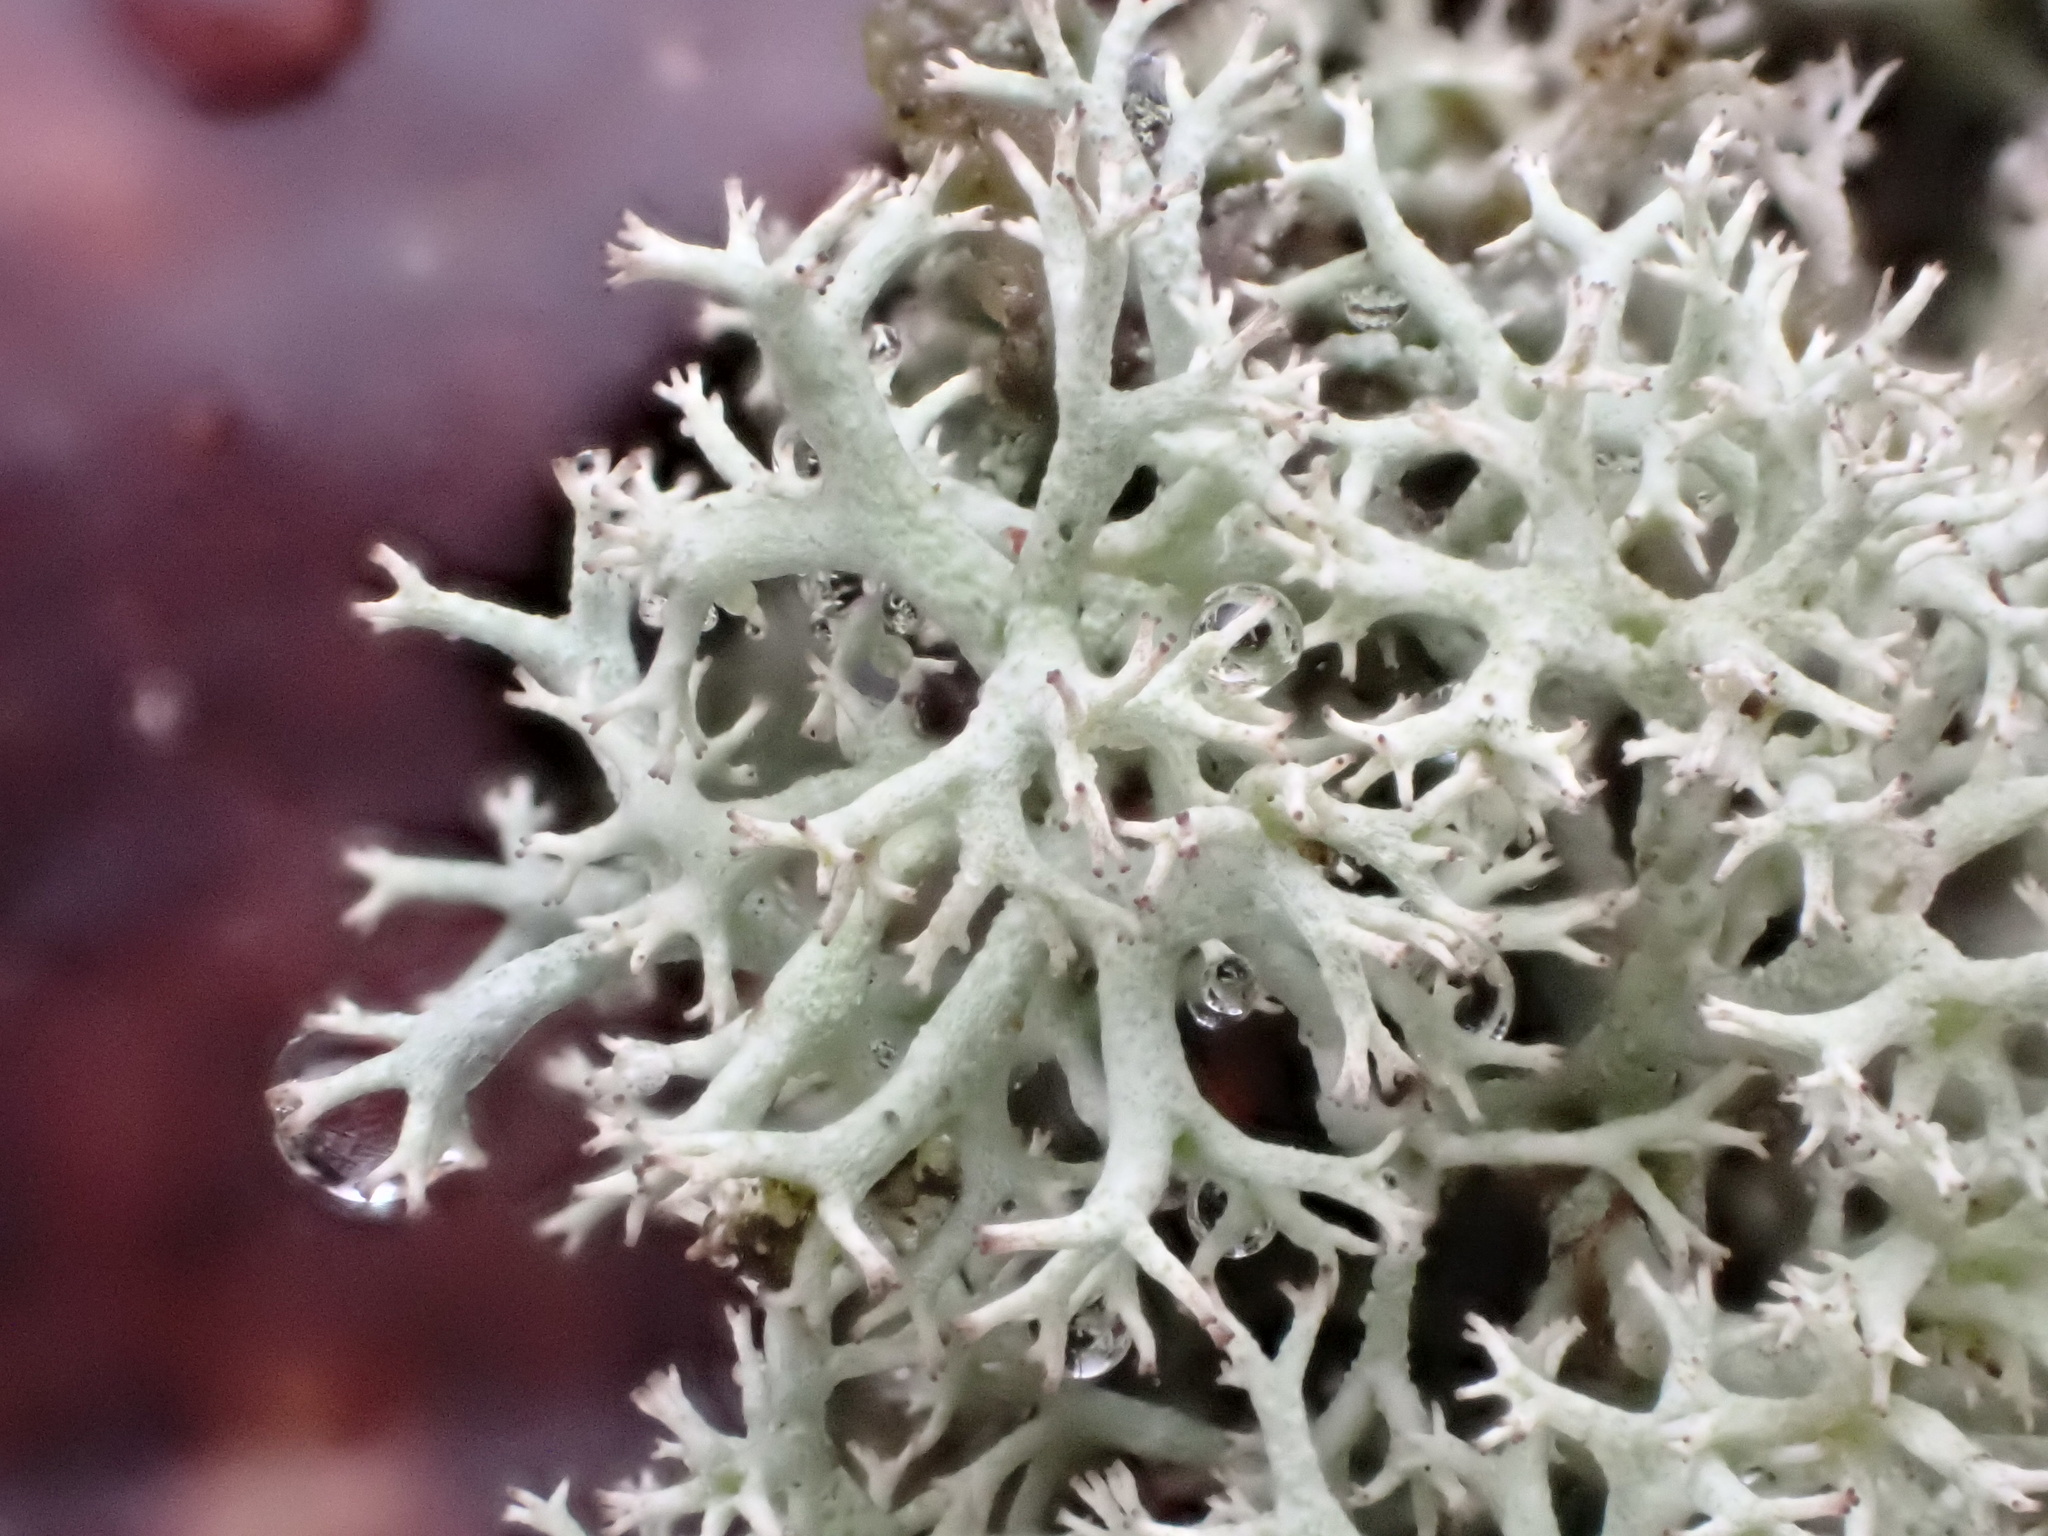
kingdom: Fungi
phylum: Ascomycota
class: Lecanoromycetes
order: Lecanorales
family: Cladoniaceae
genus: Cladonia
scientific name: Cladonia portentosa
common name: Reindeer lichen
